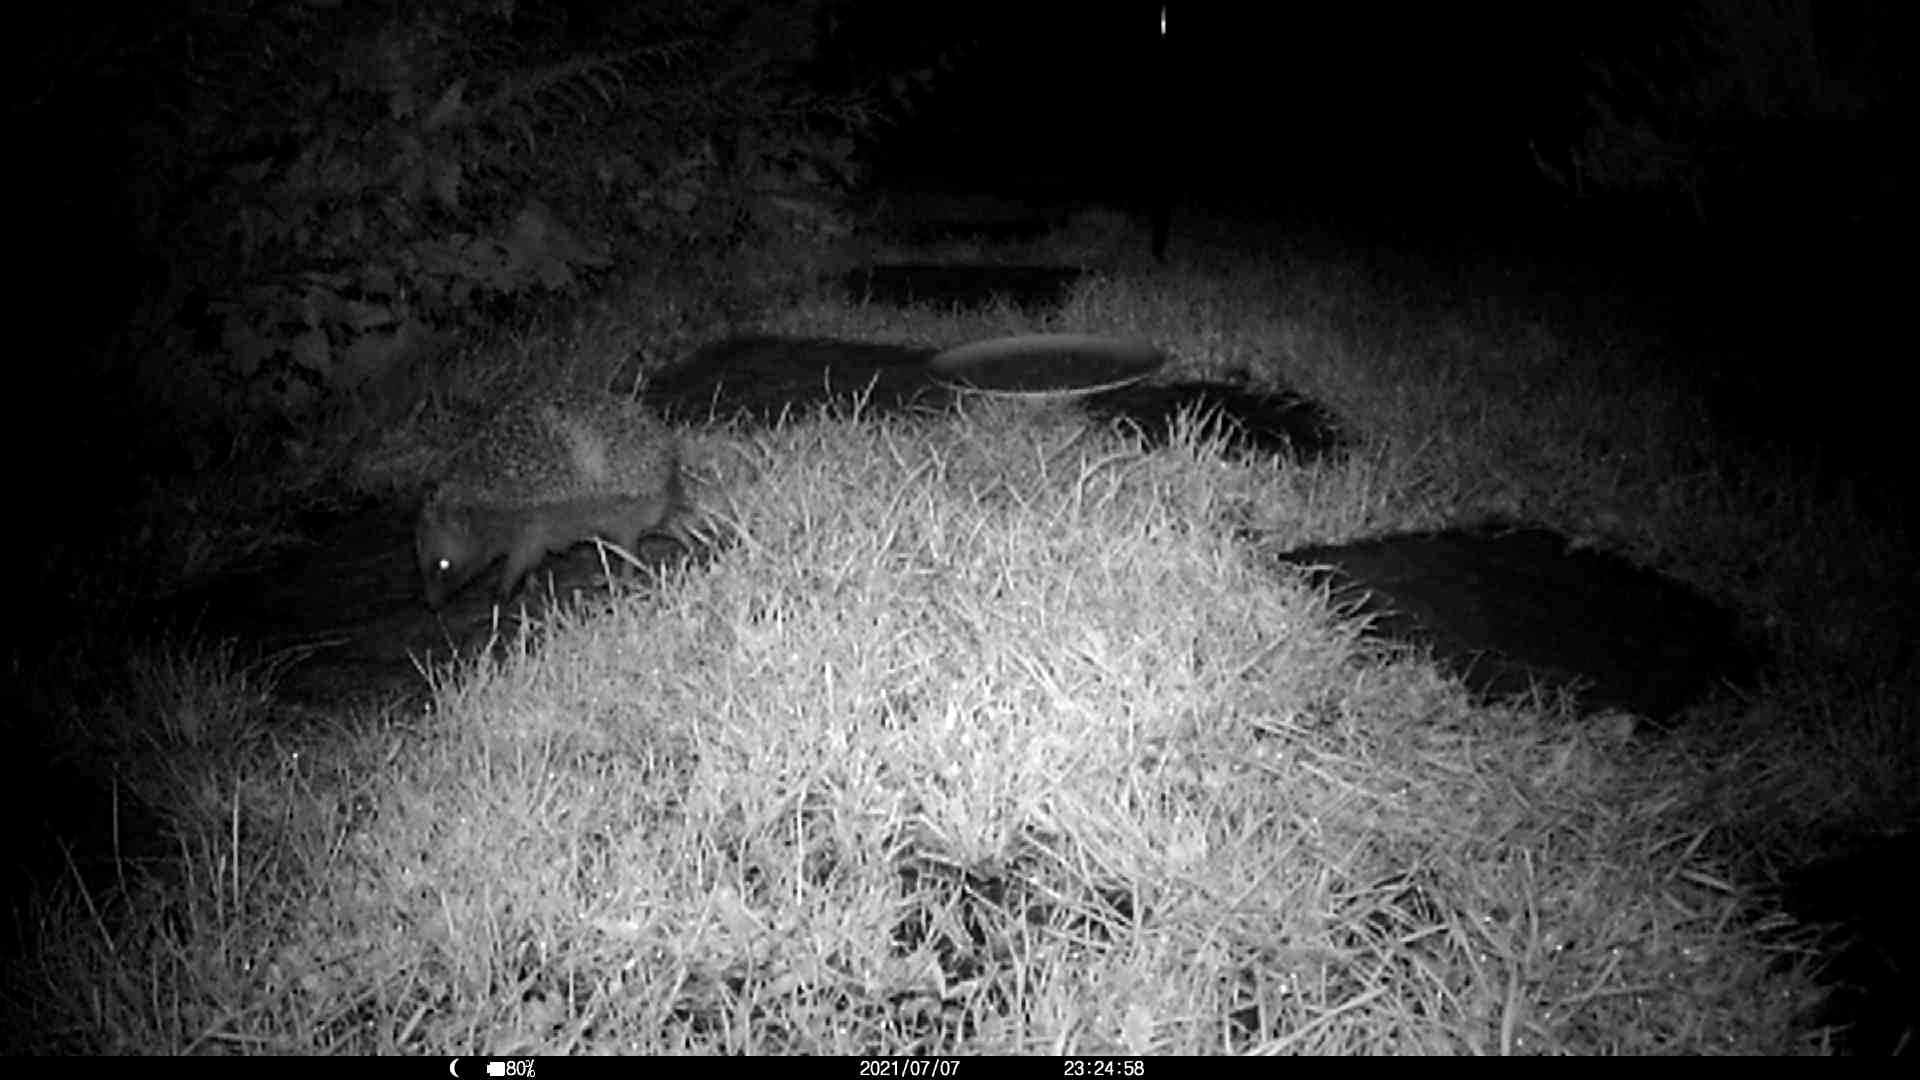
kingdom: Animalia
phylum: Chordata
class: Mammalia
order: Erinaceomorpha
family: Erinaceidae
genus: Erinaceus
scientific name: Erinaceus europaeus
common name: West european hedgehog
